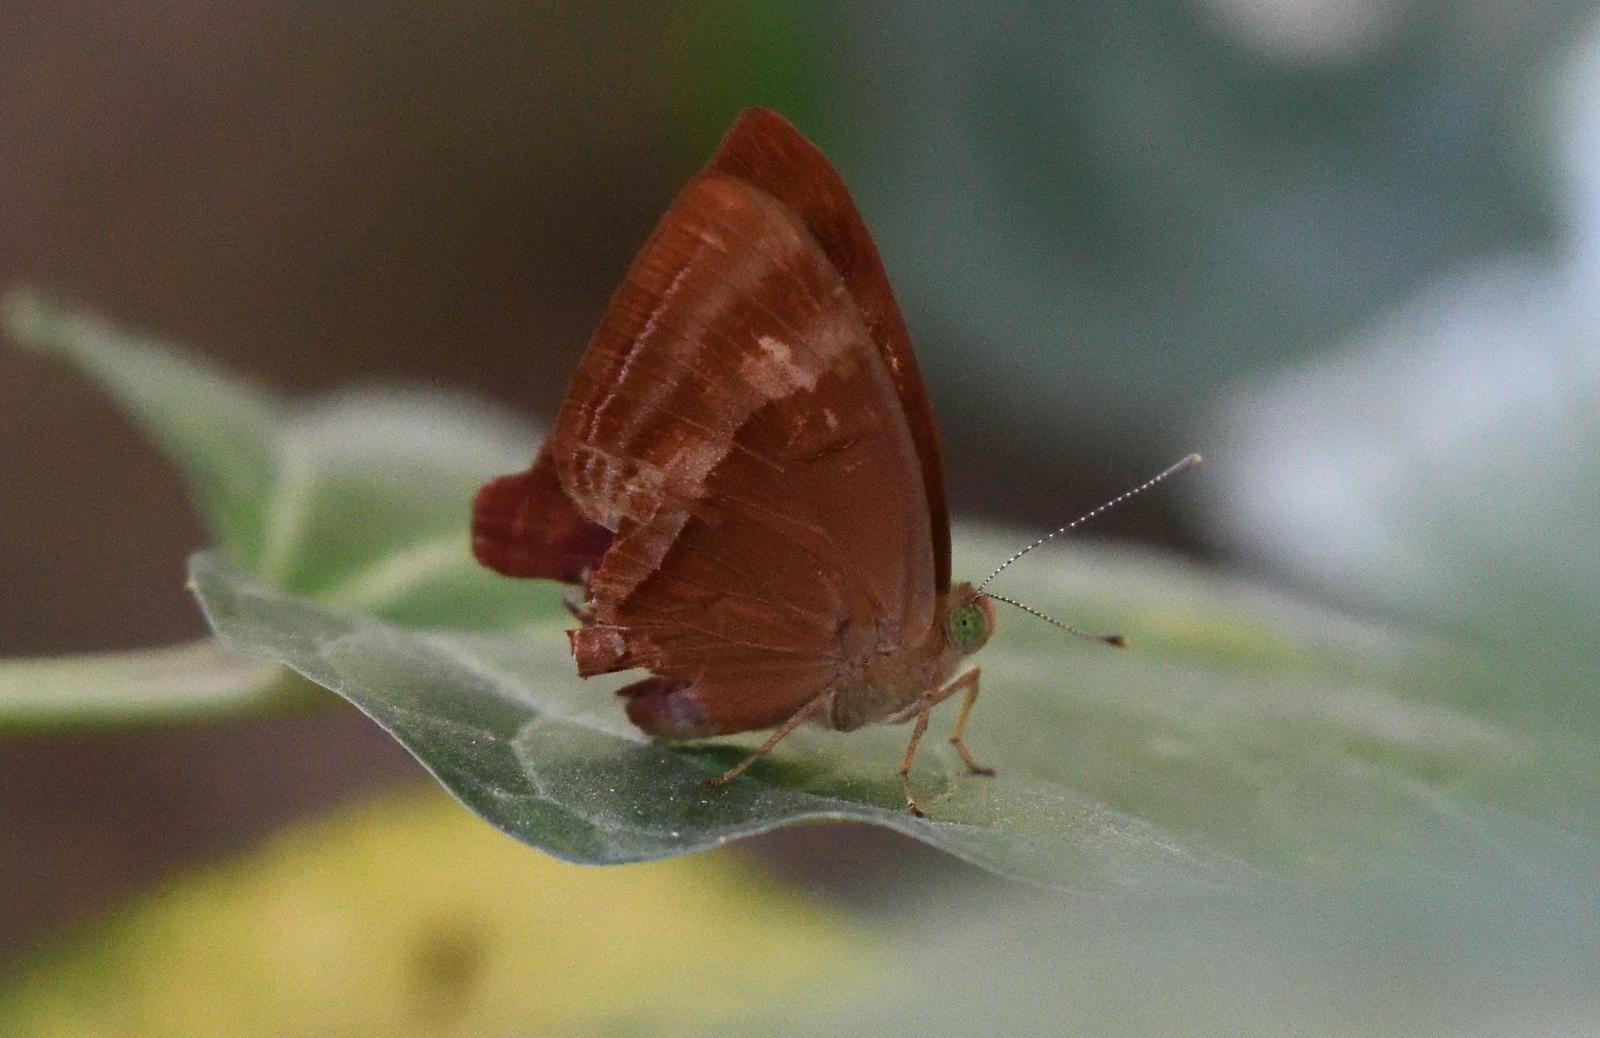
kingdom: Animalia
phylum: Arthropoda
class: Insecta
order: Lepidoptera
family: Lycaenidae
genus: Abisara
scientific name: Abisara bifasciata
